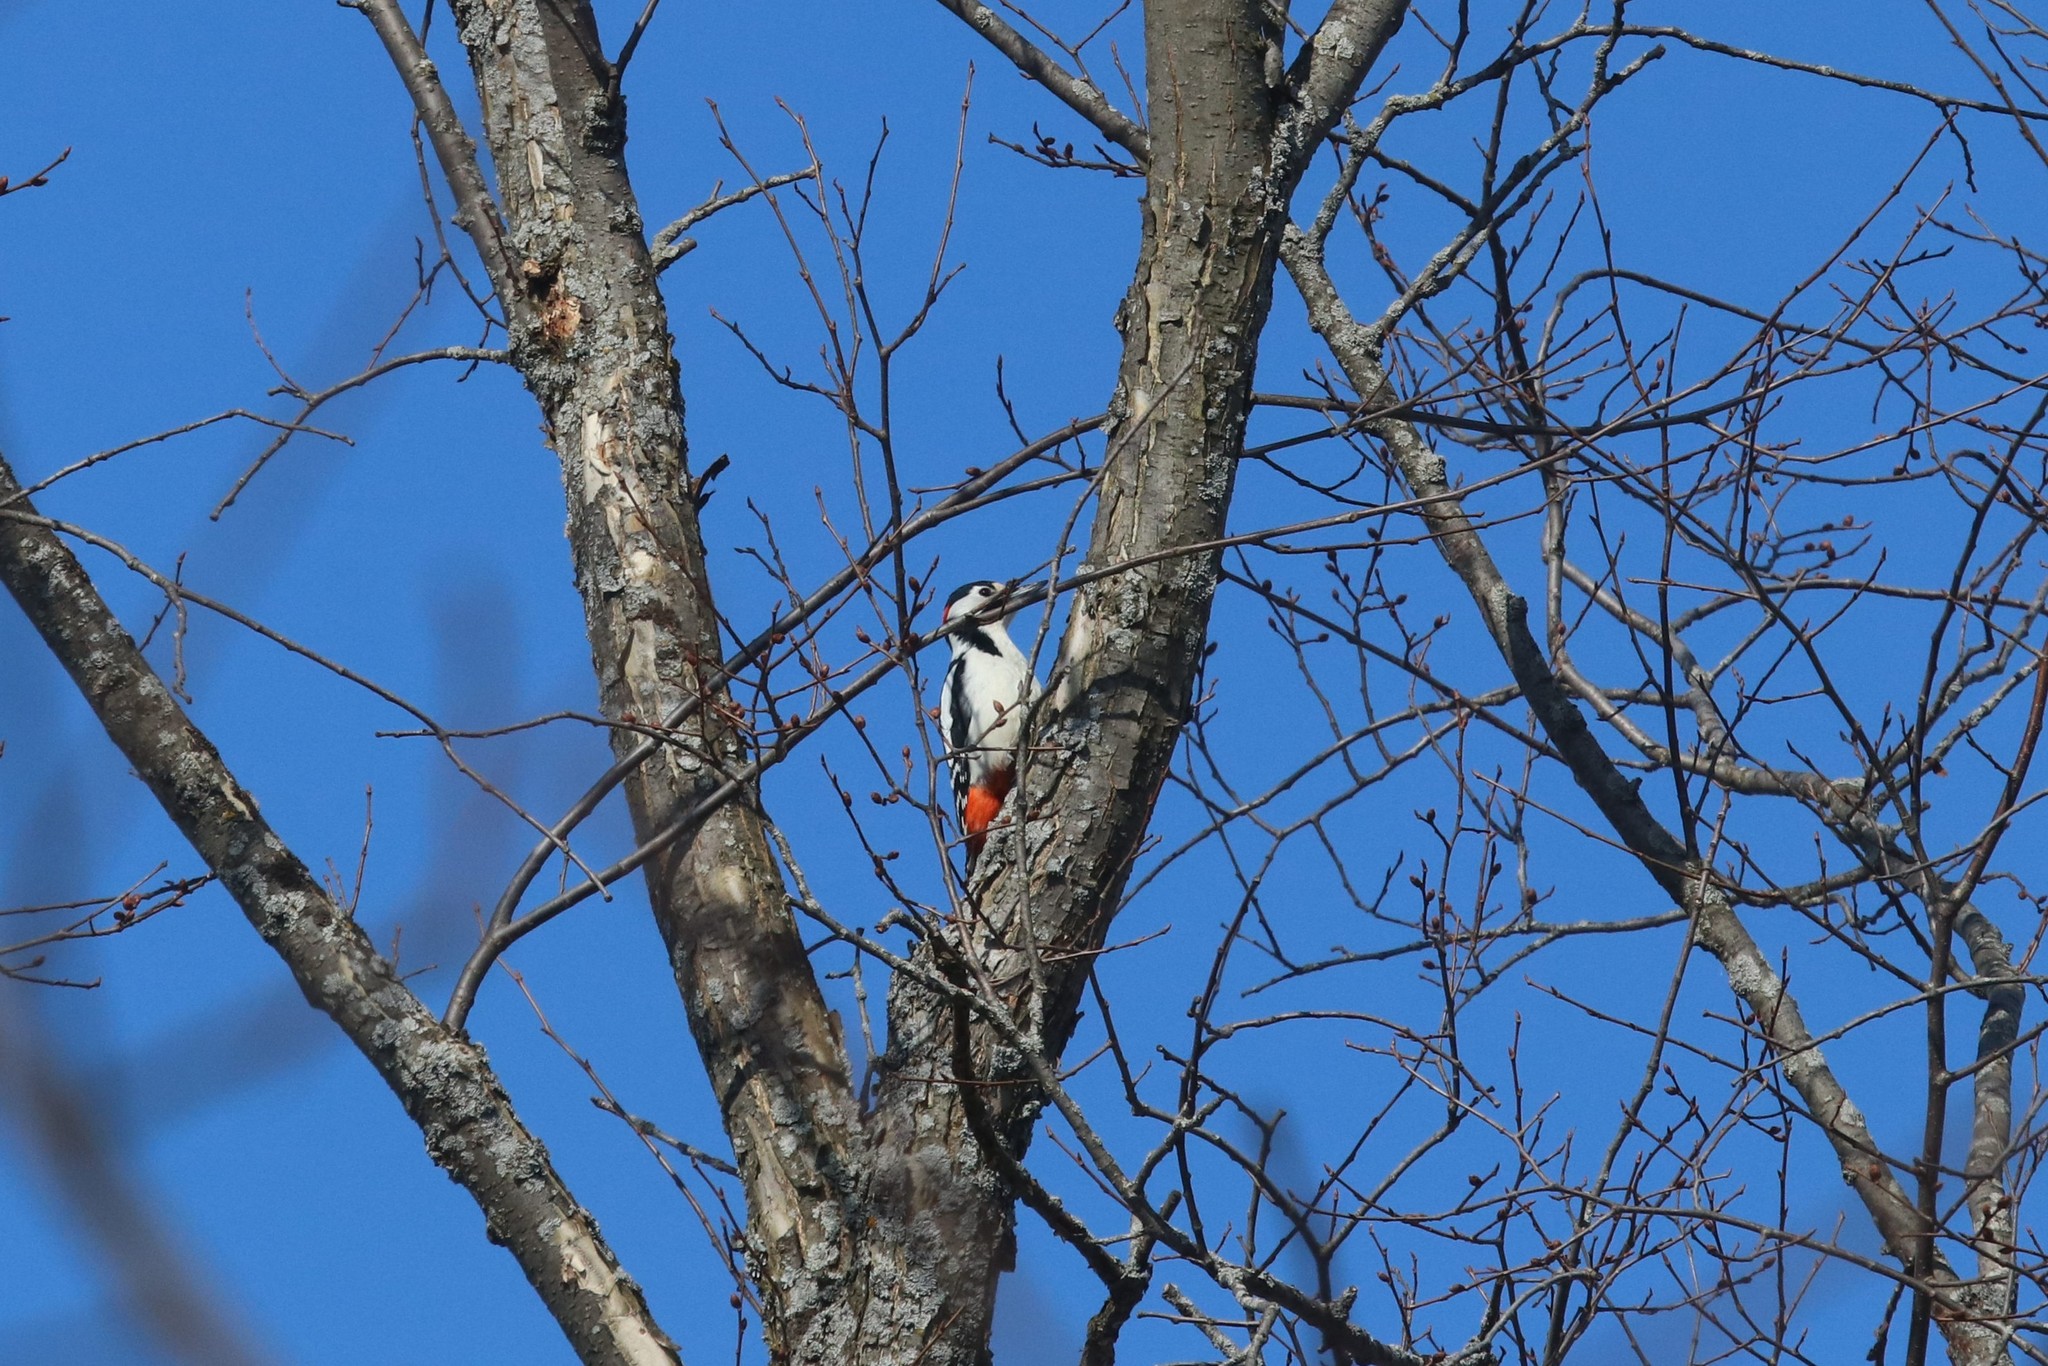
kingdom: Animalia
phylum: Chordata
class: Aves
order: Piciformes
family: Picidae
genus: Dendrocopos
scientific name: Dendrocopos major
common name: Great spotted woodpecker
